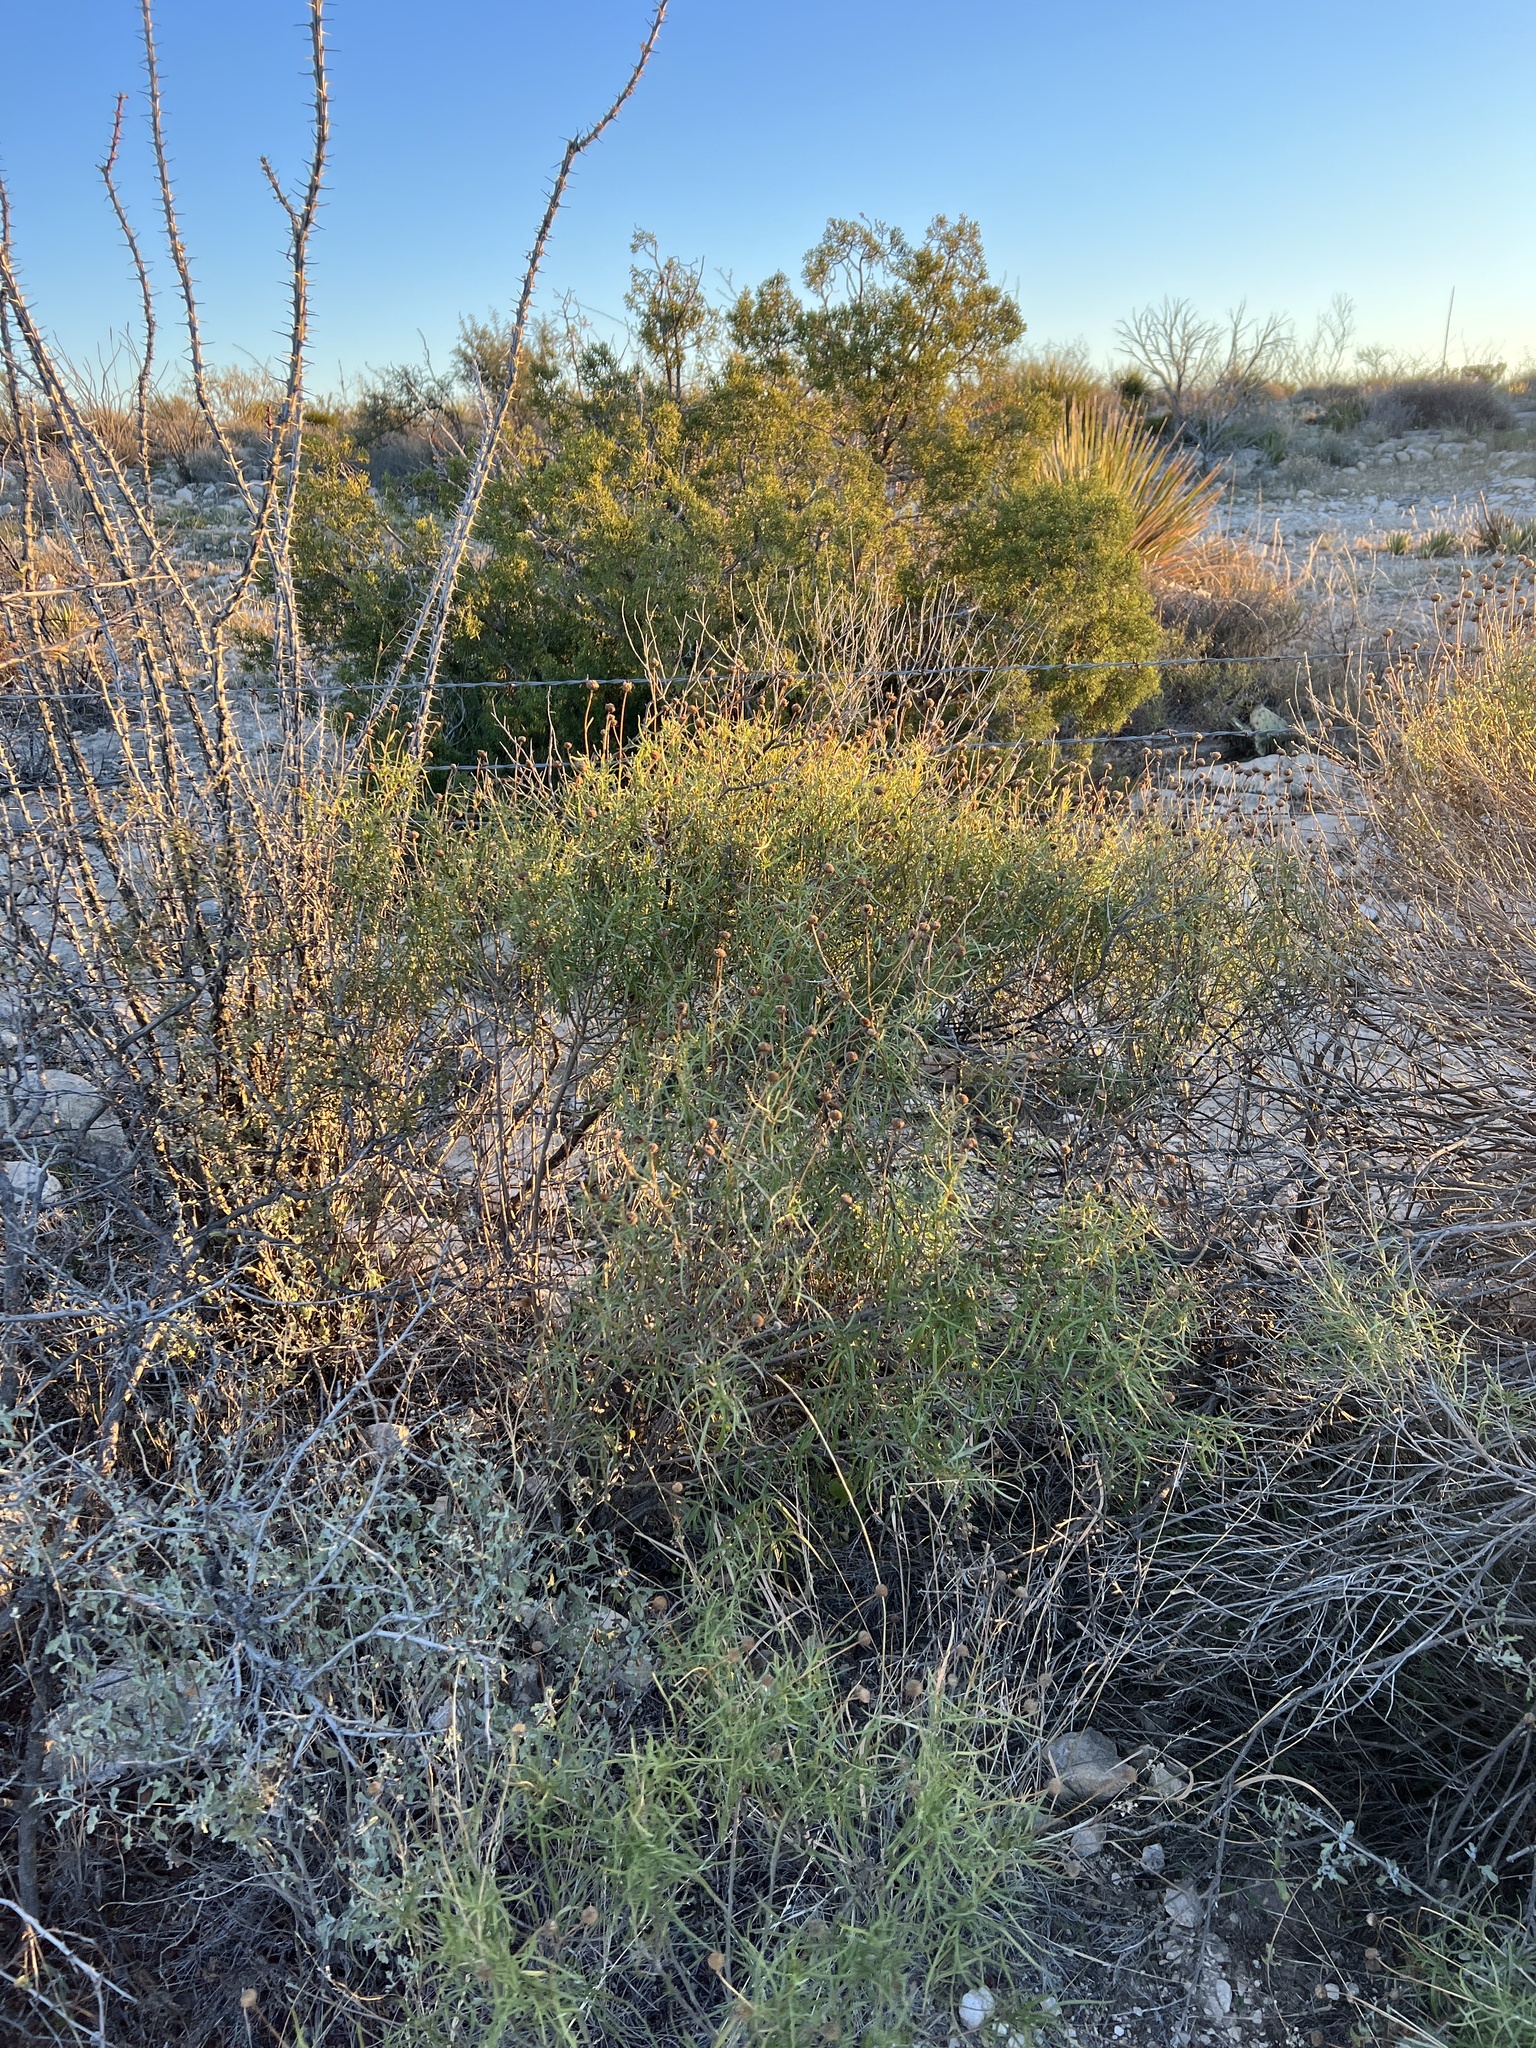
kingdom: Plantae
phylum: Tracheophyta
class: Magnoliopsida
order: Asterales
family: Asteraceae
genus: Sidneya
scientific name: Sidneya tenuifolia
